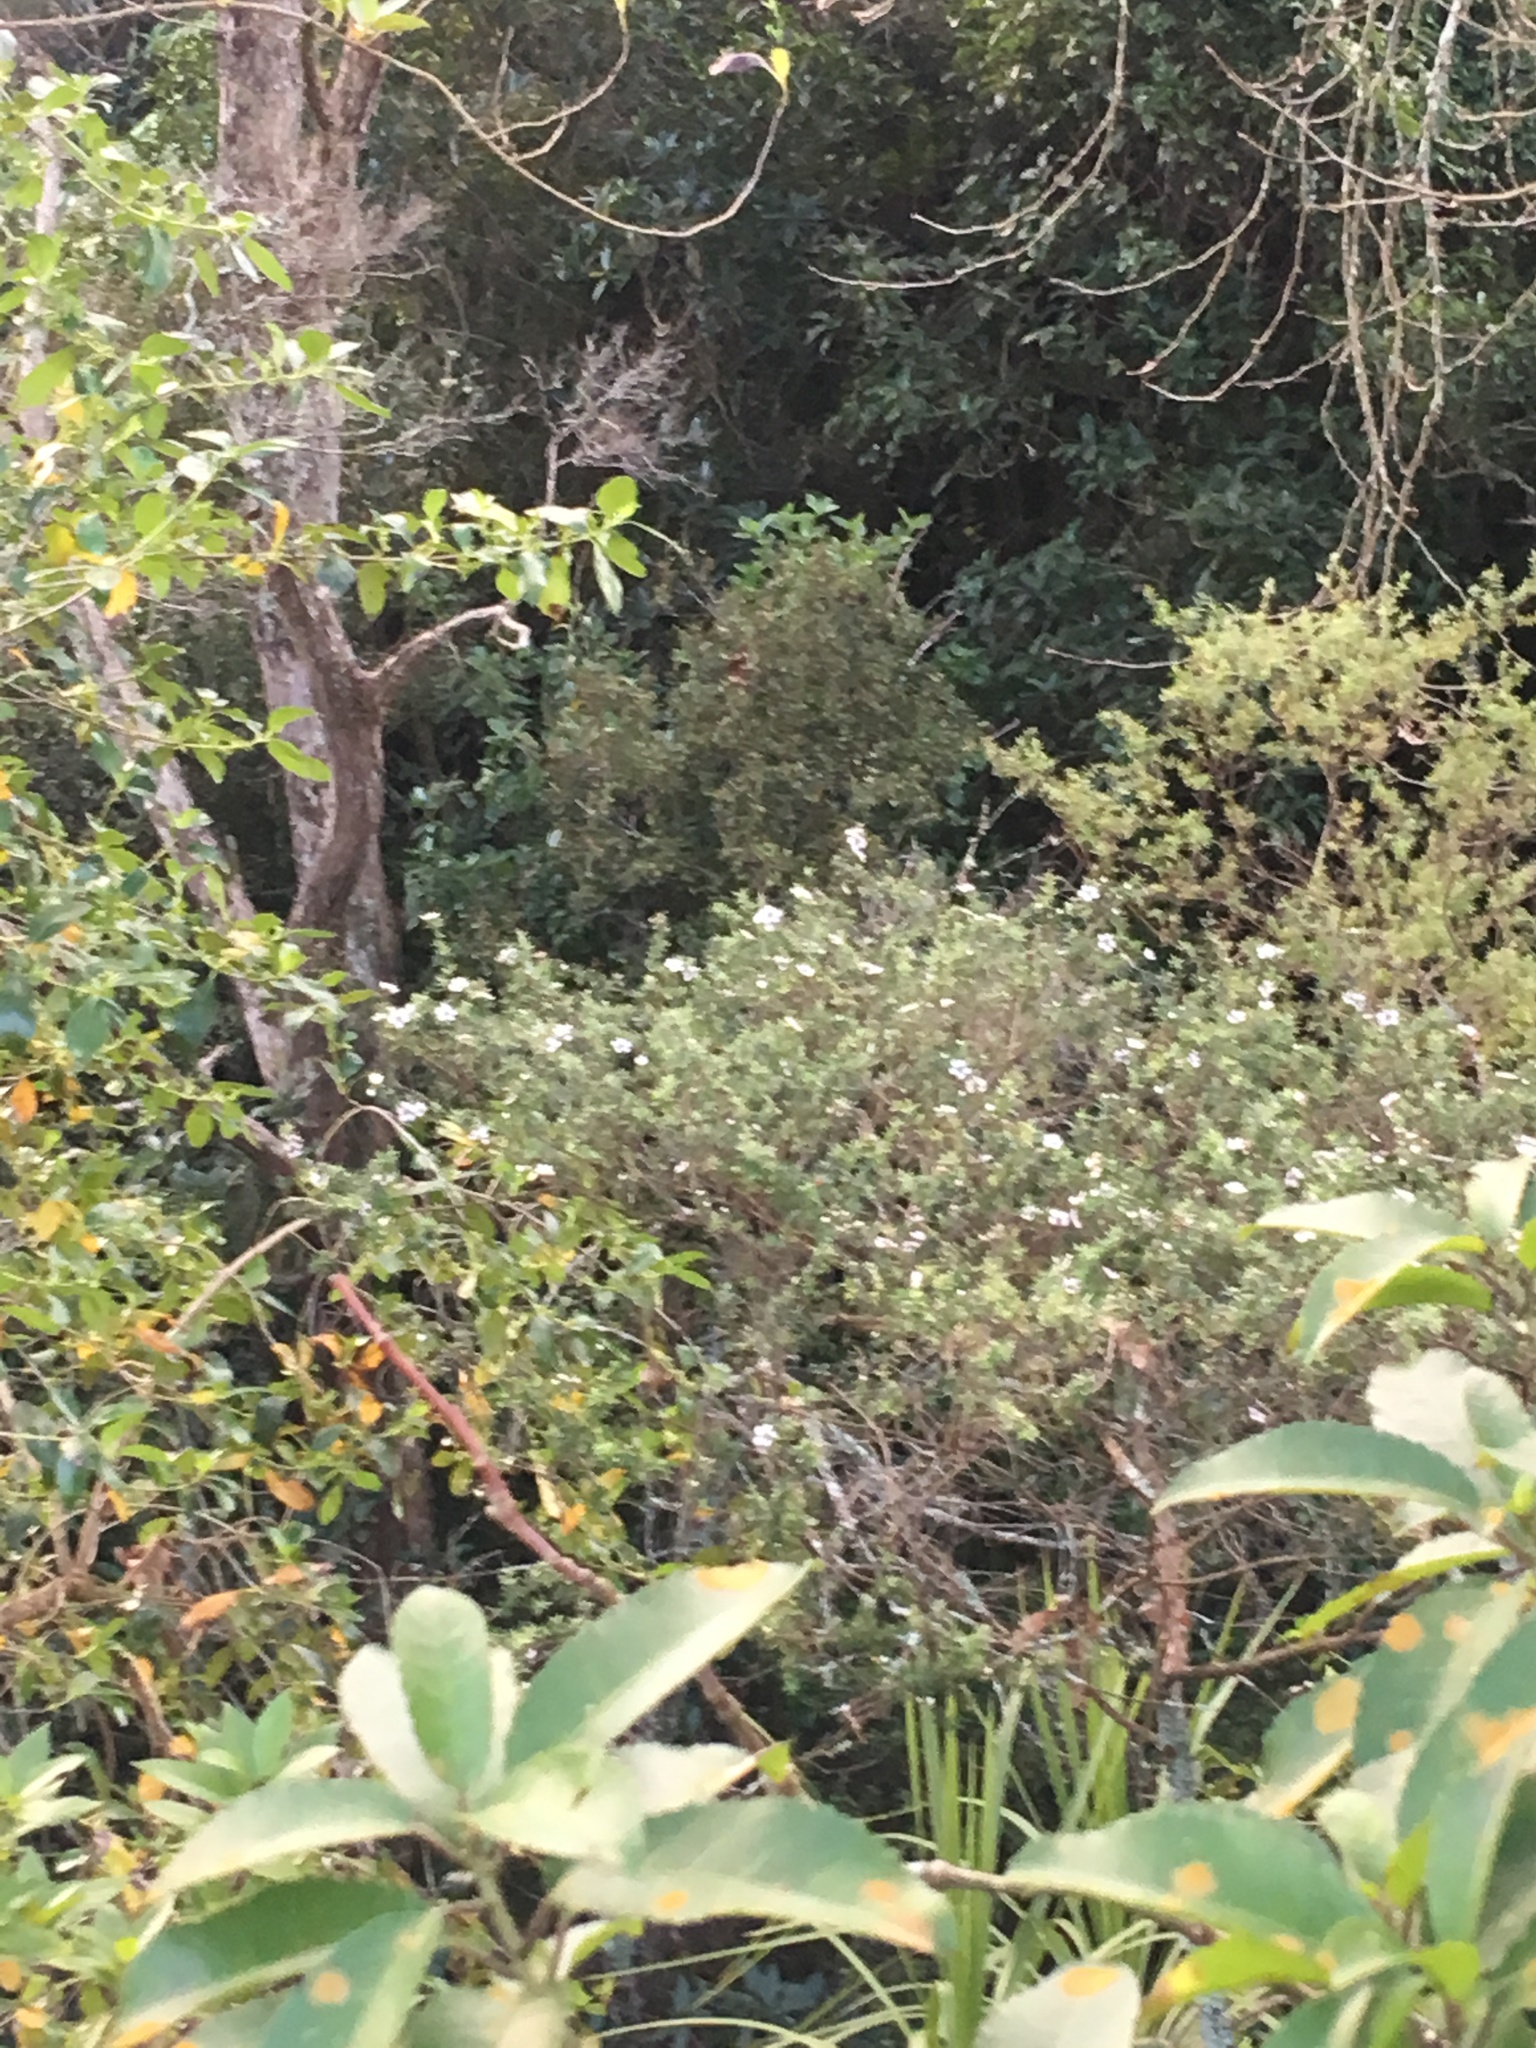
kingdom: Plantae
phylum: Tracheophyta
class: Magnoliopsida
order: Myrtales
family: Myrtaceae
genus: Leptospermum
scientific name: Leptospermum scoparium
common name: Broom tea-tree
